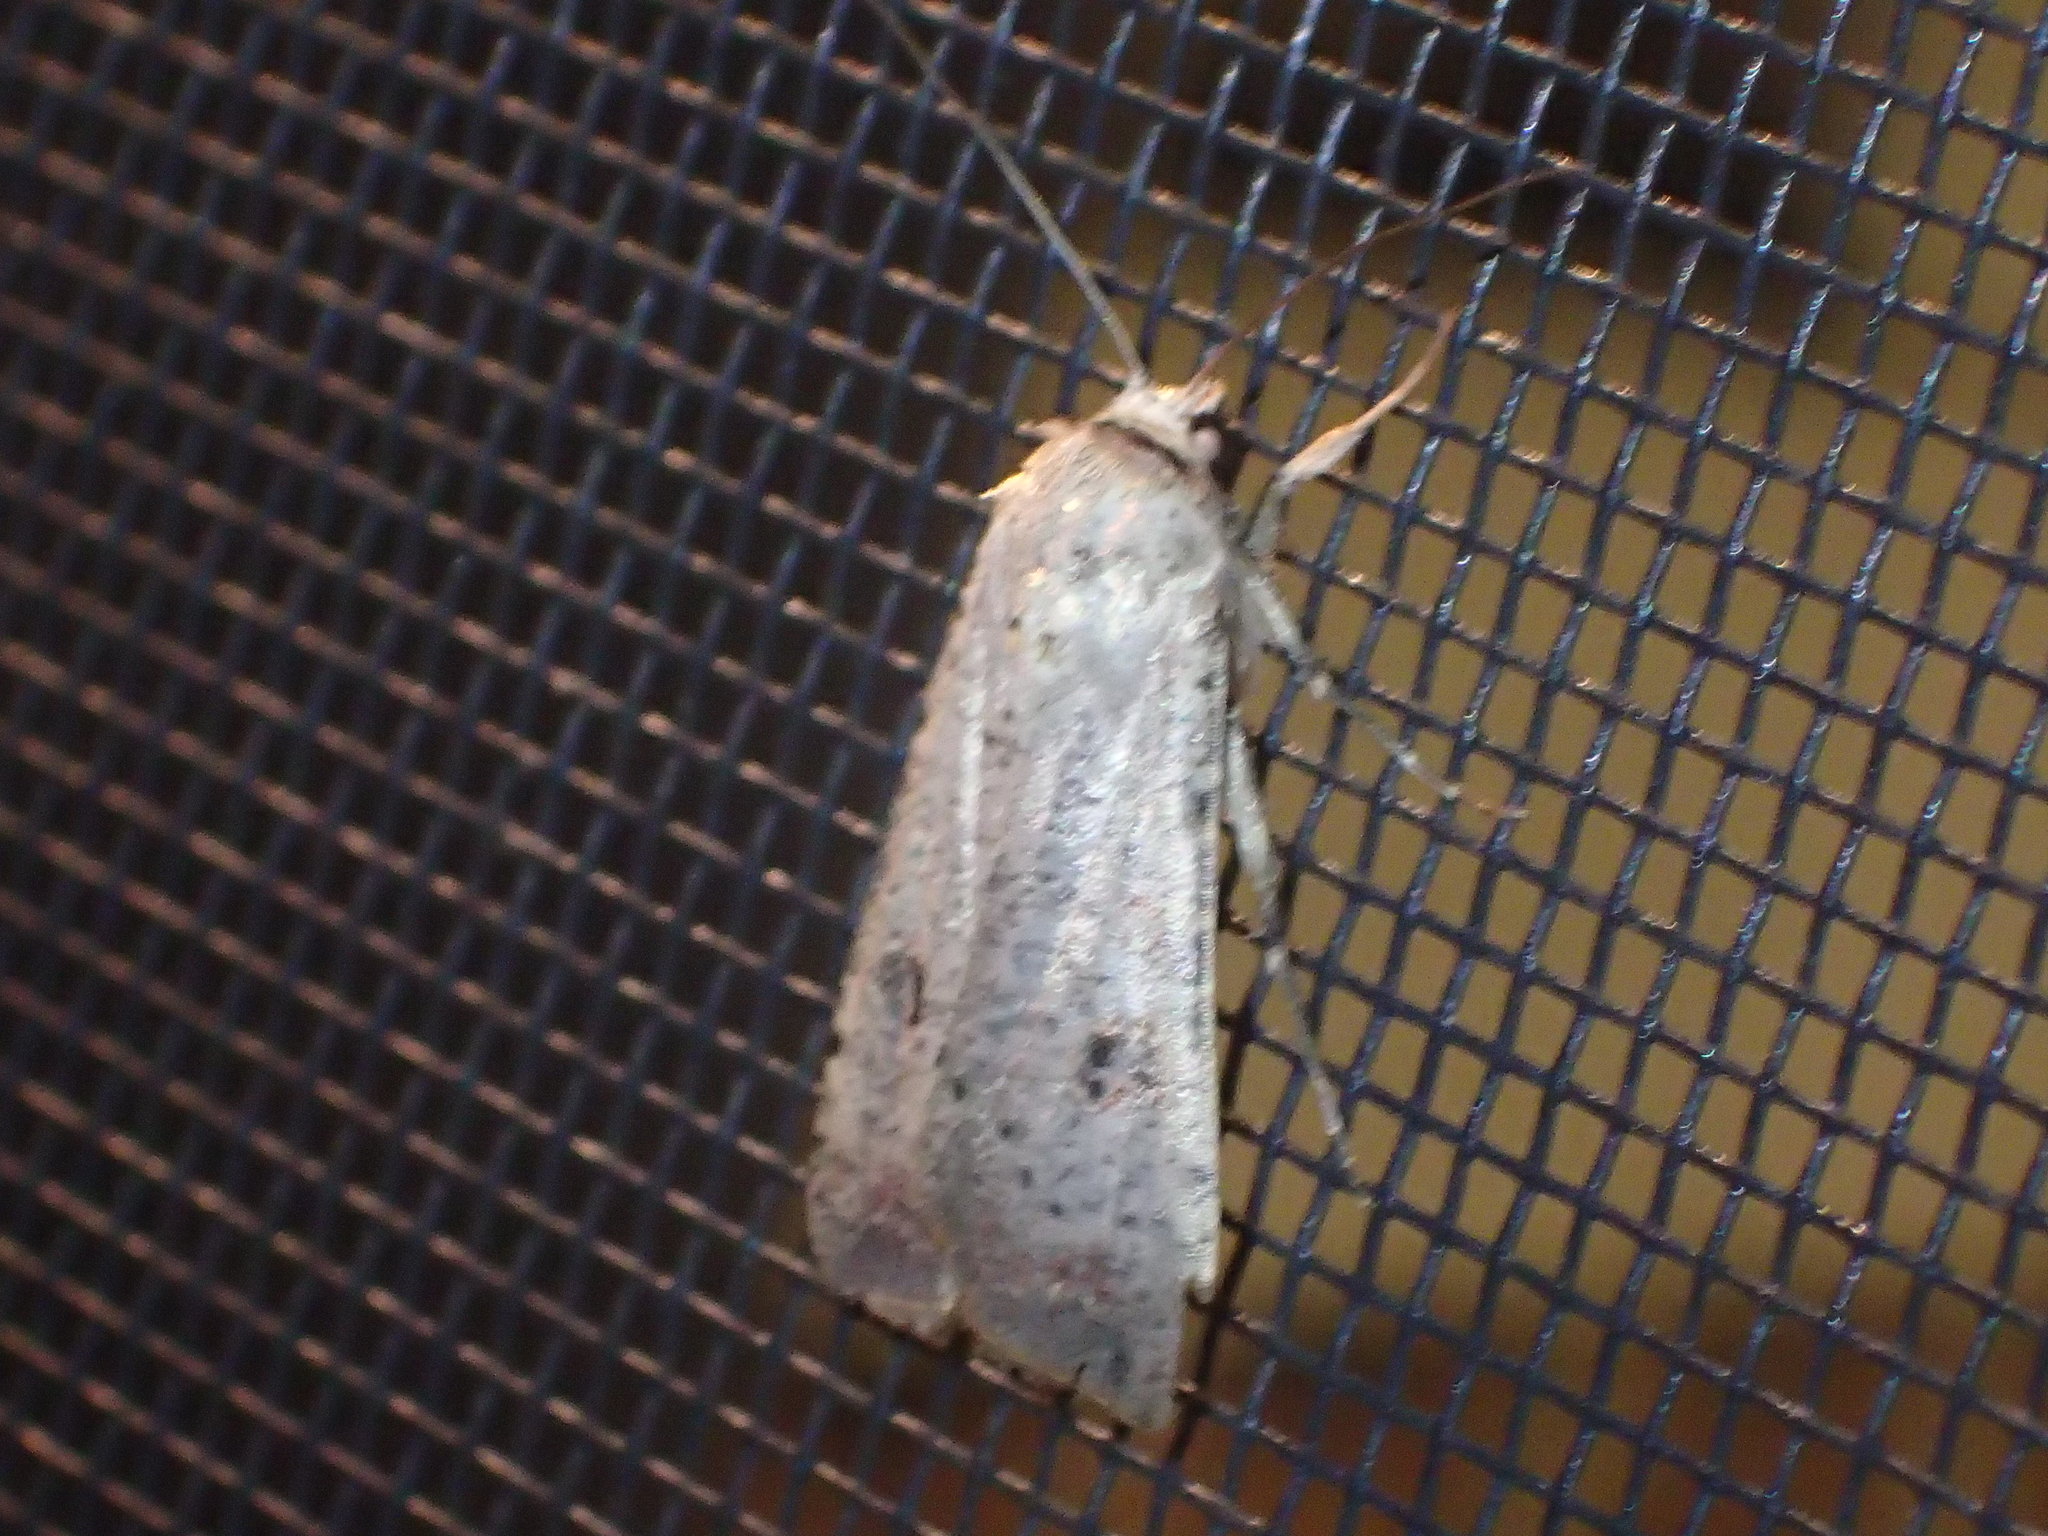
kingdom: Animalia
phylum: Arthropoda
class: Insecta
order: Lepidoptera
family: Noctuidae
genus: Anicla
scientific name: Anicla infecta
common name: Green cutworm
